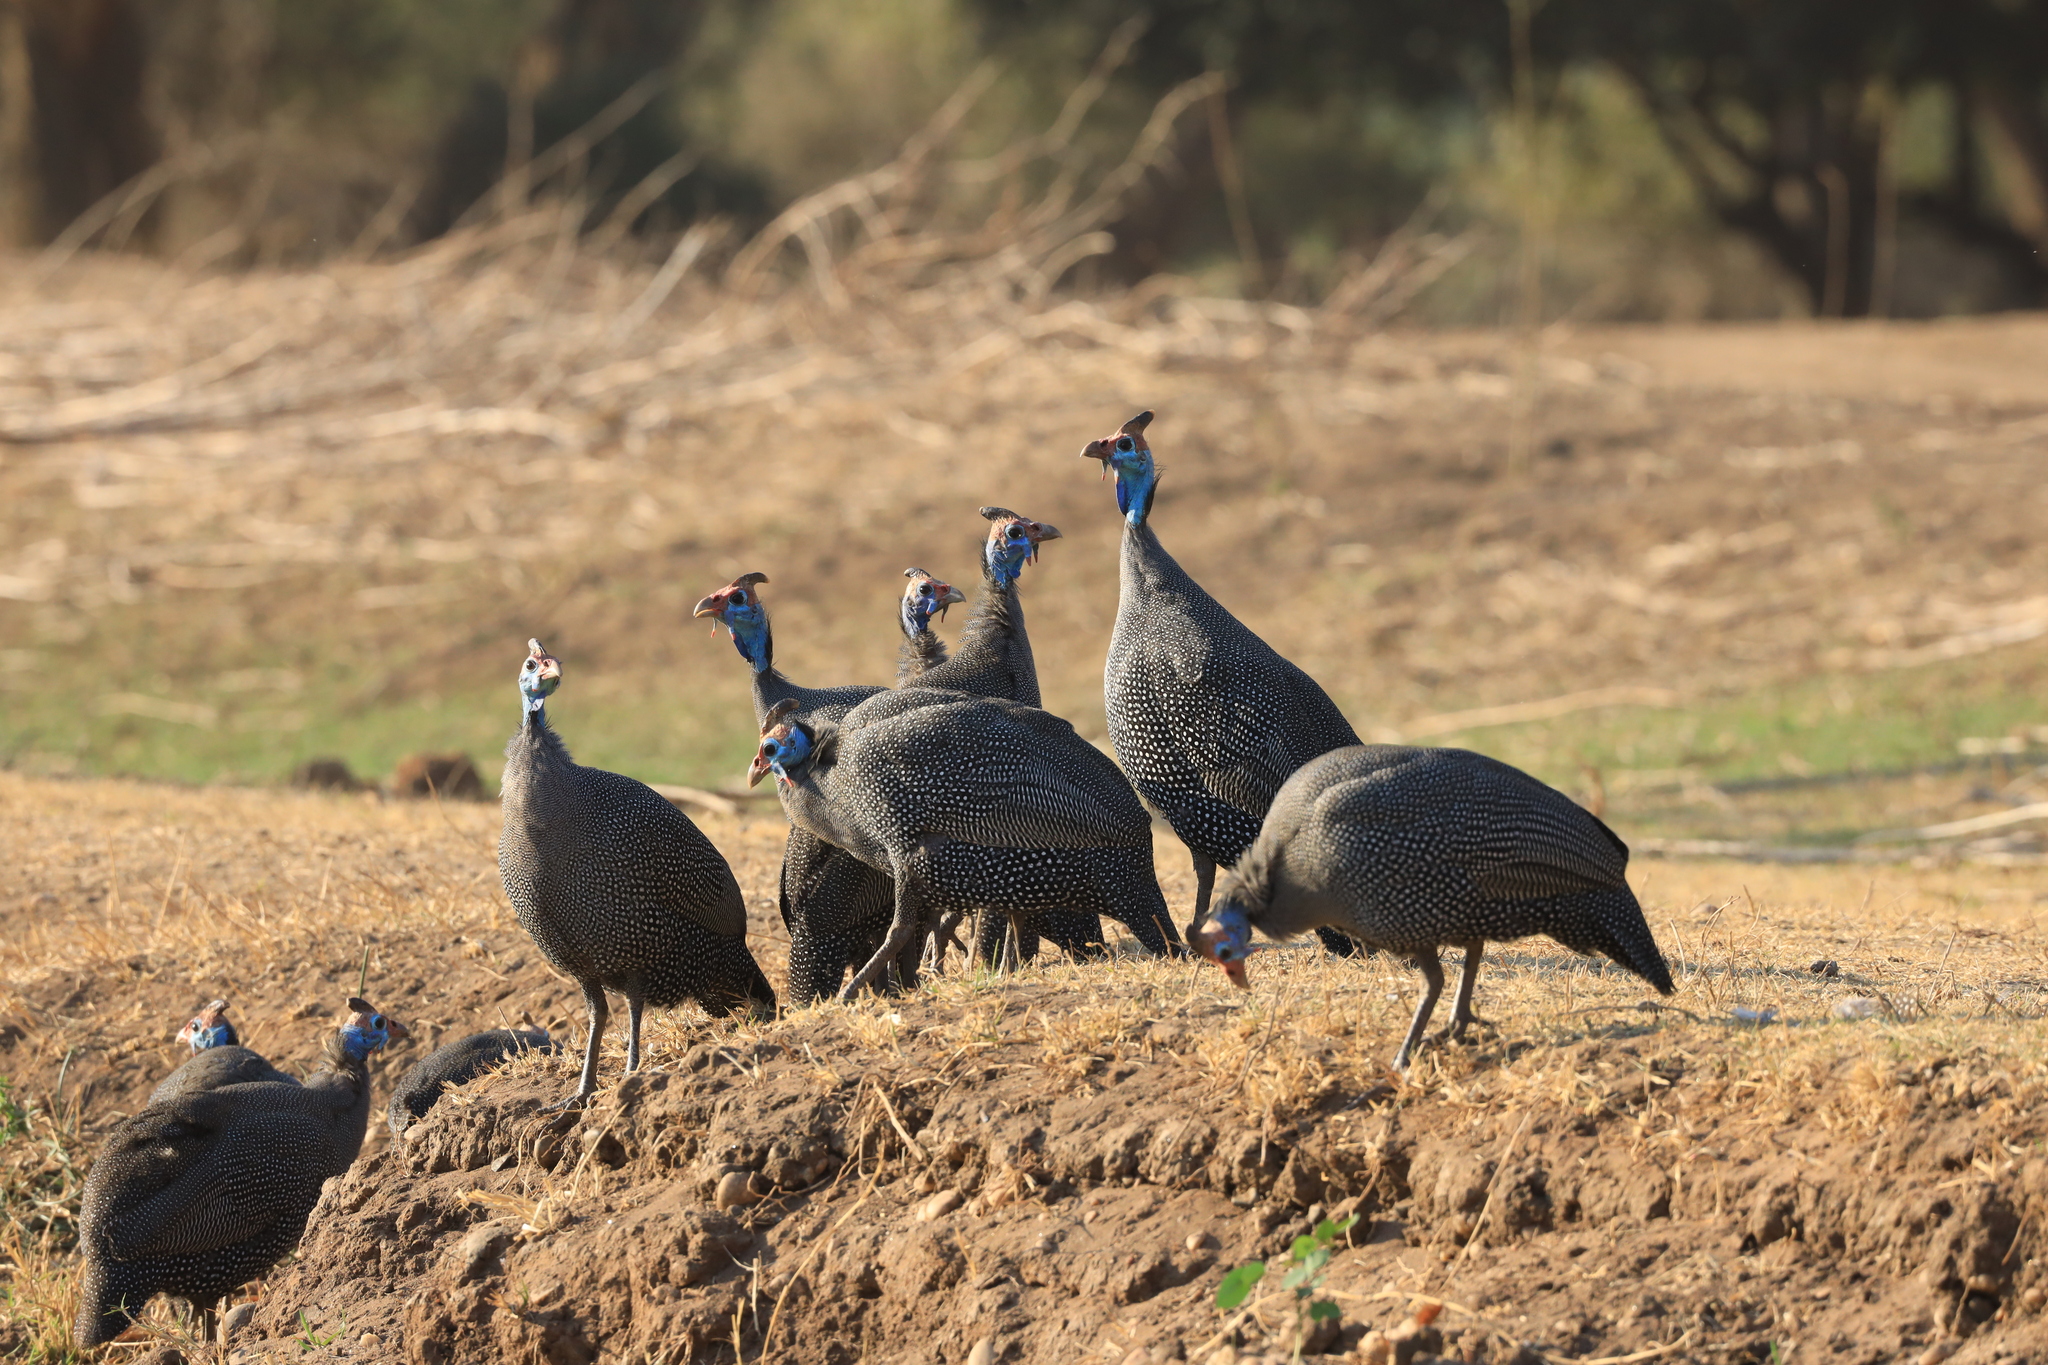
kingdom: Animalia
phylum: Chordata
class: Aves
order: Galliformes
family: Numididae
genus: Numida
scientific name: Numida meleagris
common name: Helmeted guineafowl
